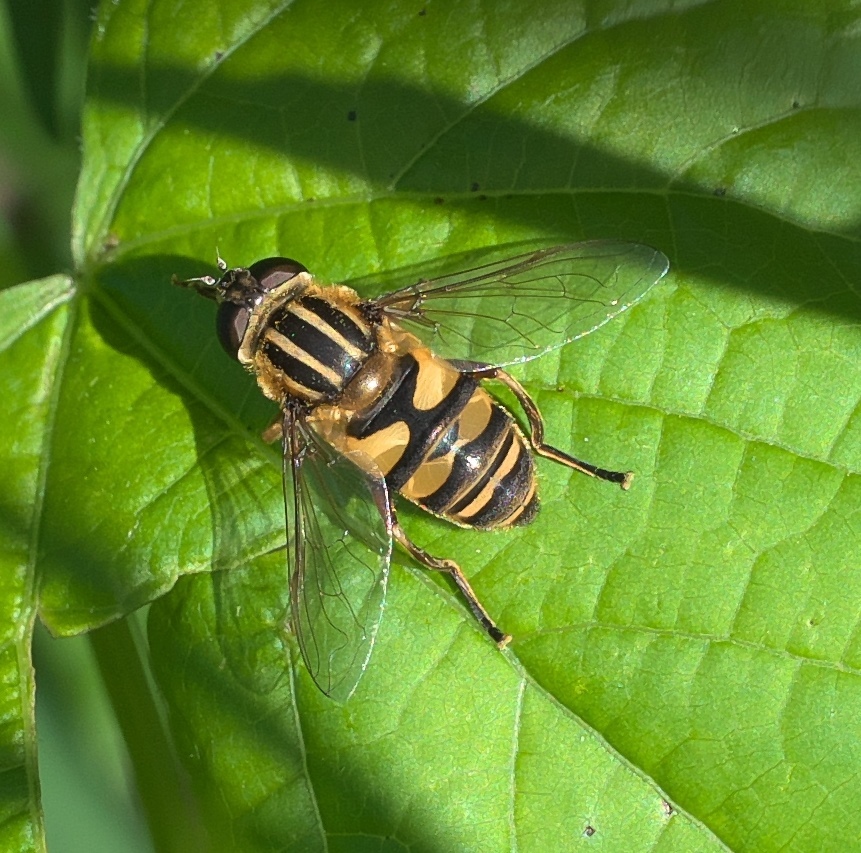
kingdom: Animalia
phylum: Arthropoda
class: Insecta
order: Diptera
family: Syrphidae
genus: Helophilus
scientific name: Helophilus fasciatus
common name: Narrow-headed marsh fly
